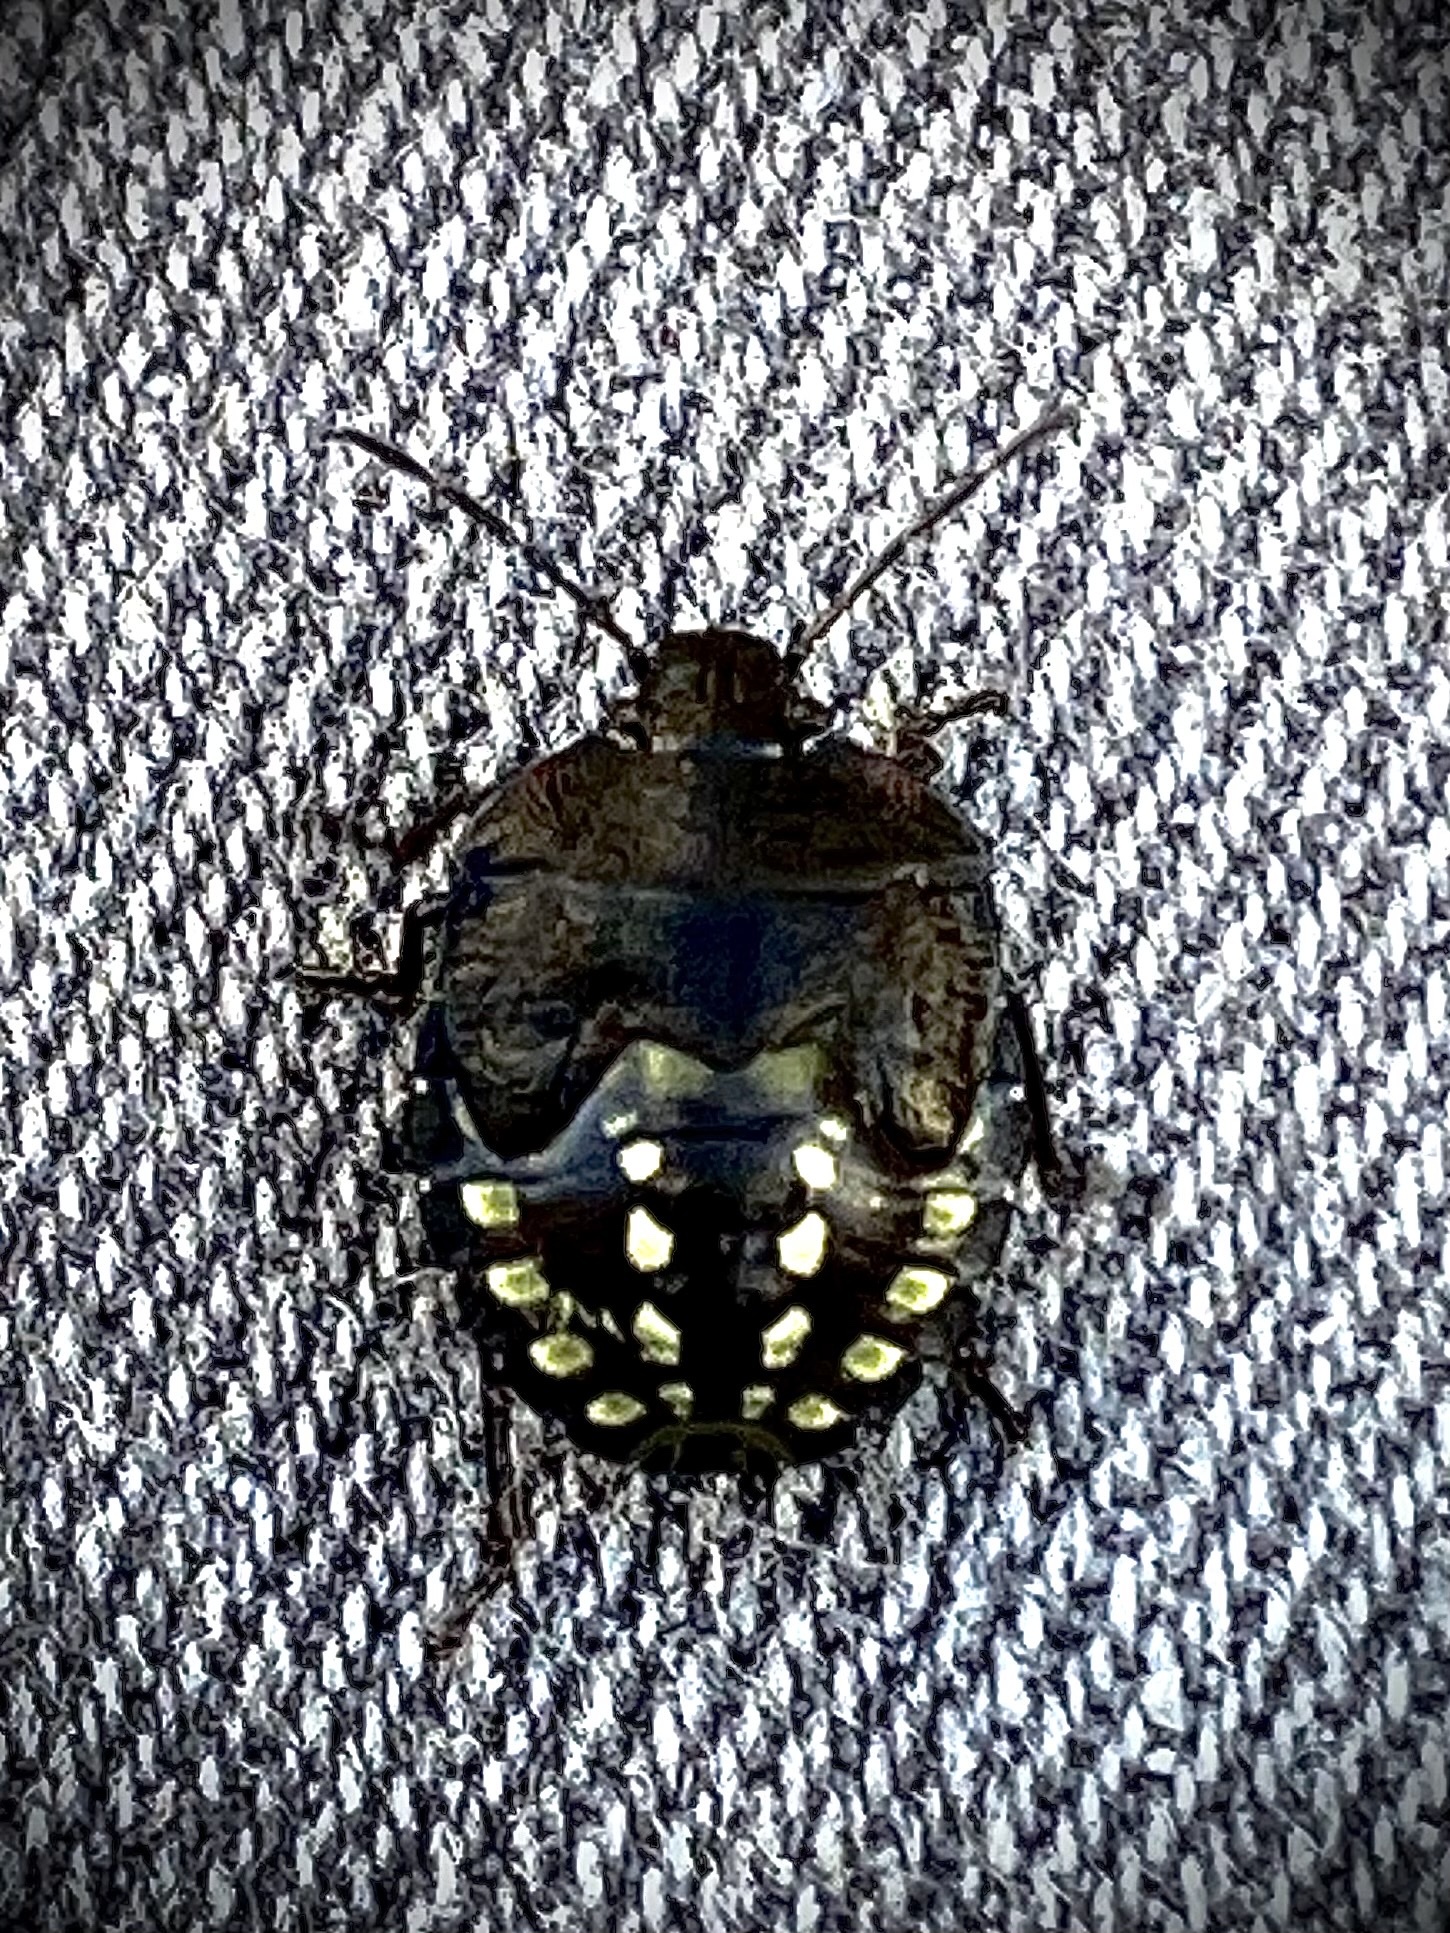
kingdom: Animalia
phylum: Arthropoda
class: Insecta
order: Hemiptera
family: Pentatomidae
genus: Nezara
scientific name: Nezara viridula
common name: Southern green stink bug
